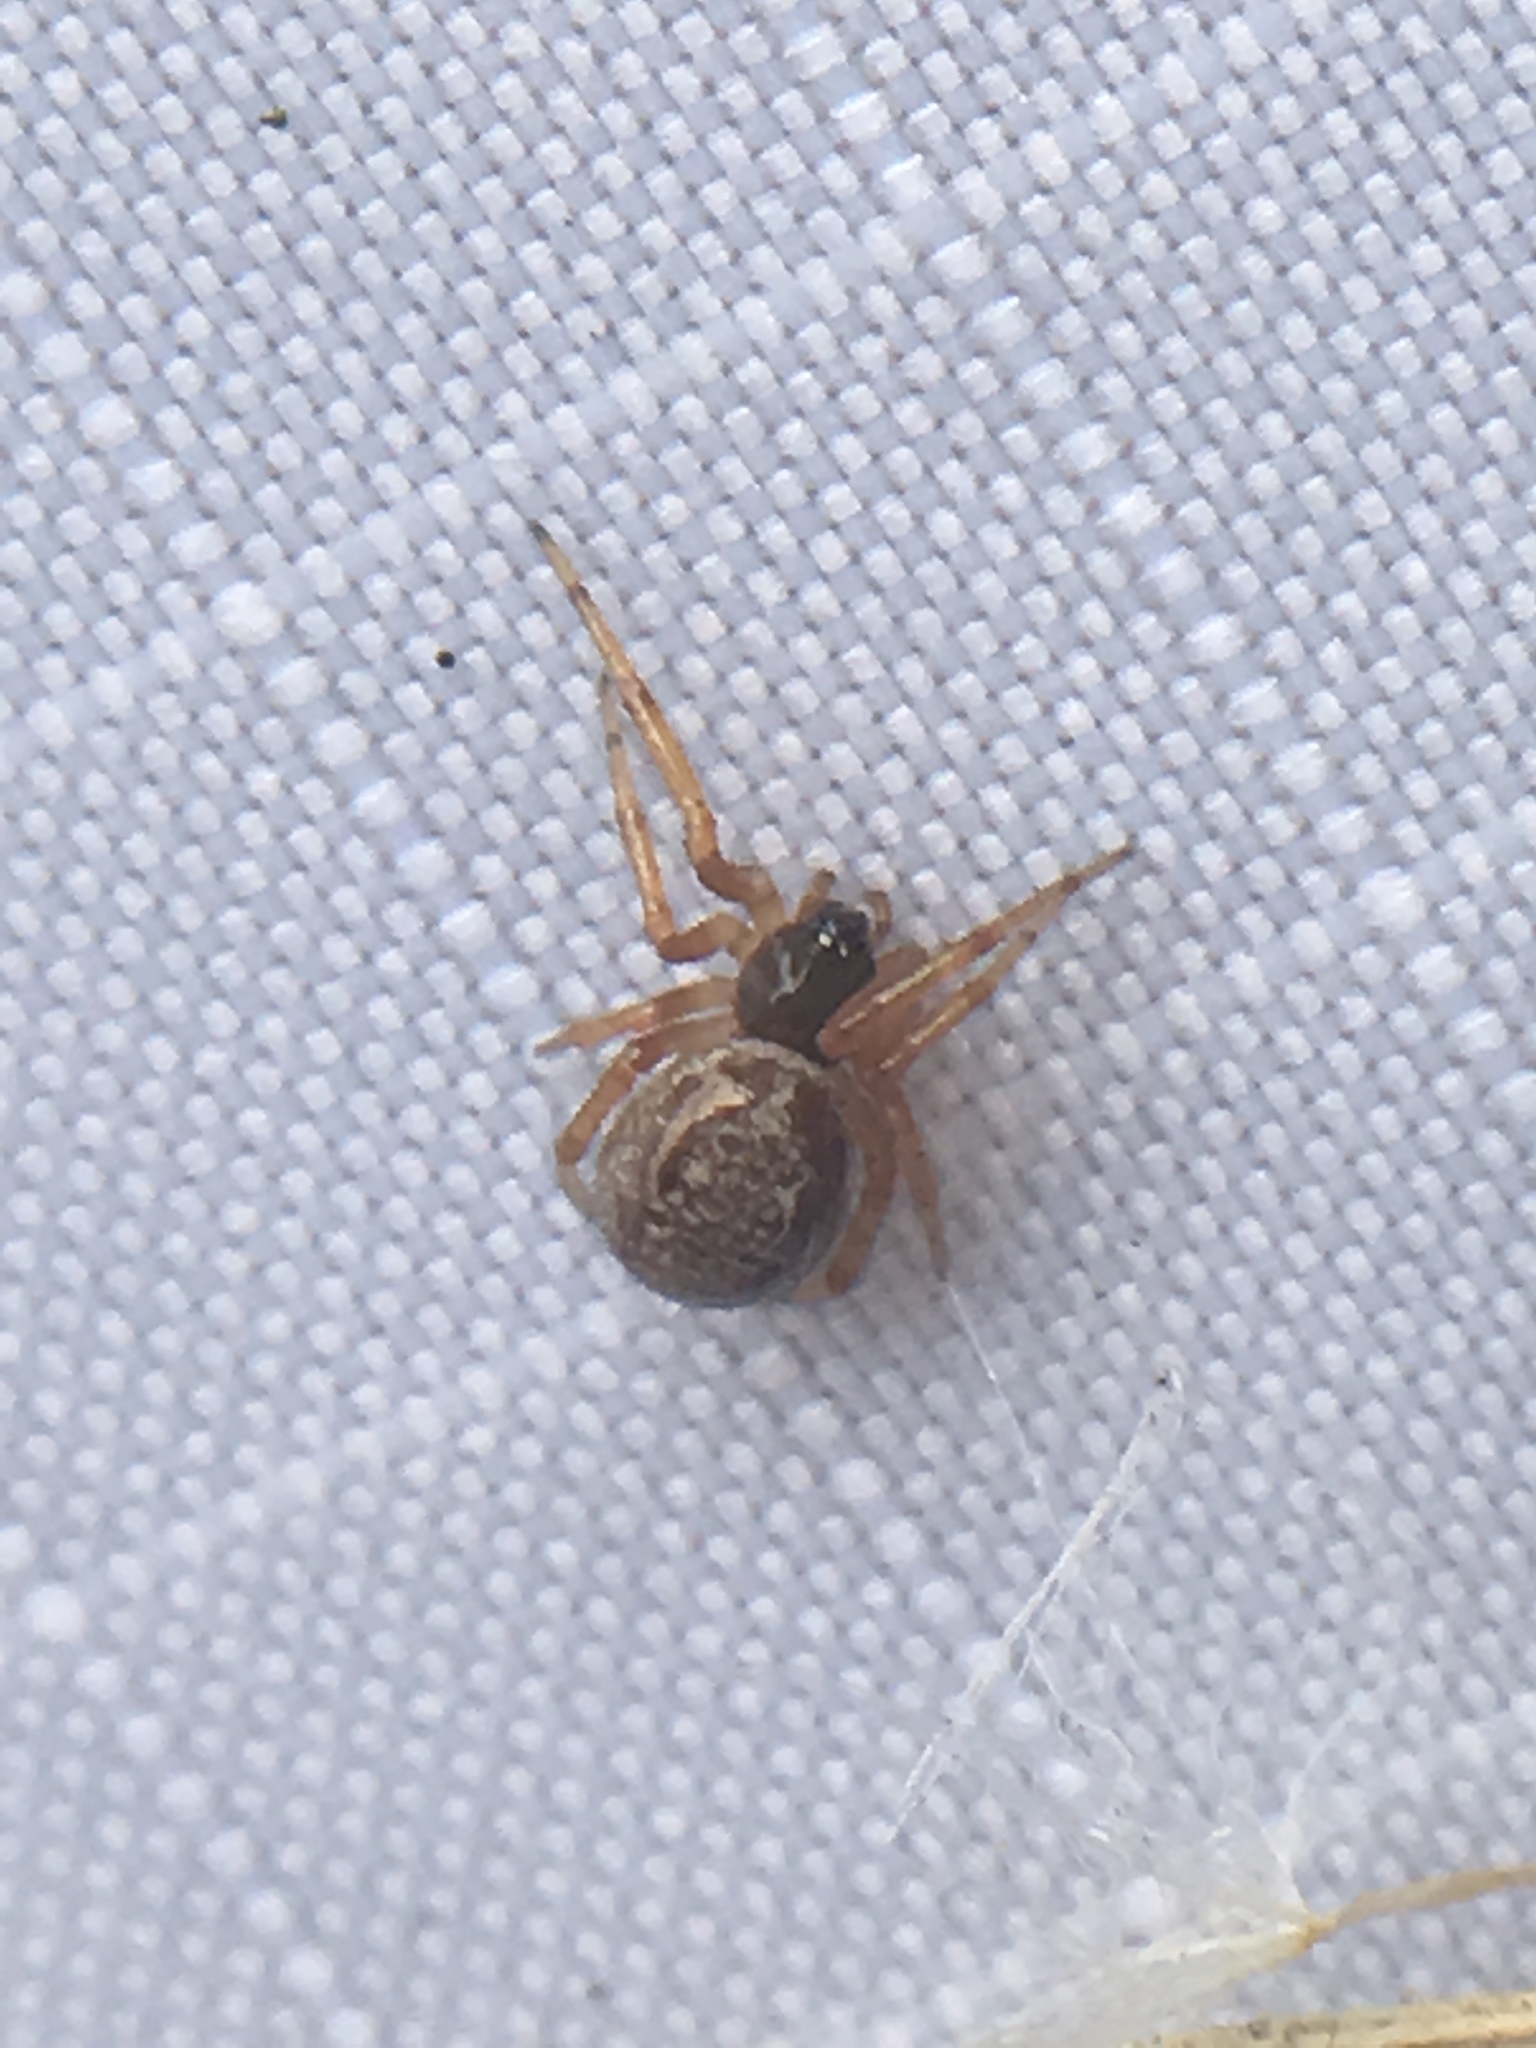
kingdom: Animalia
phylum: Arthropoda
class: Arachnida
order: Araneae
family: Theridiidae
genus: Steatoda
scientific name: Steatoda nobilis
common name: Cobweb weaver
